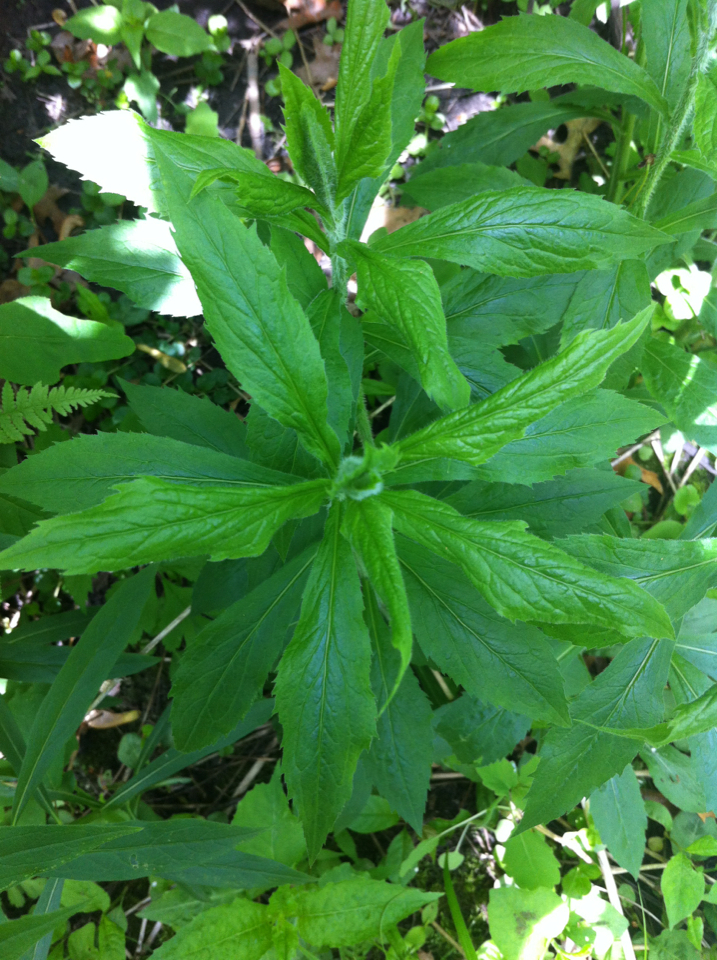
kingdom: Plantae
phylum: Tracheophyta
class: Magnoliopsida
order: Asterales
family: Asteraceae
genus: Solidago
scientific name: Solidago rugosa
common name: Rough-stemmed goldenrod
